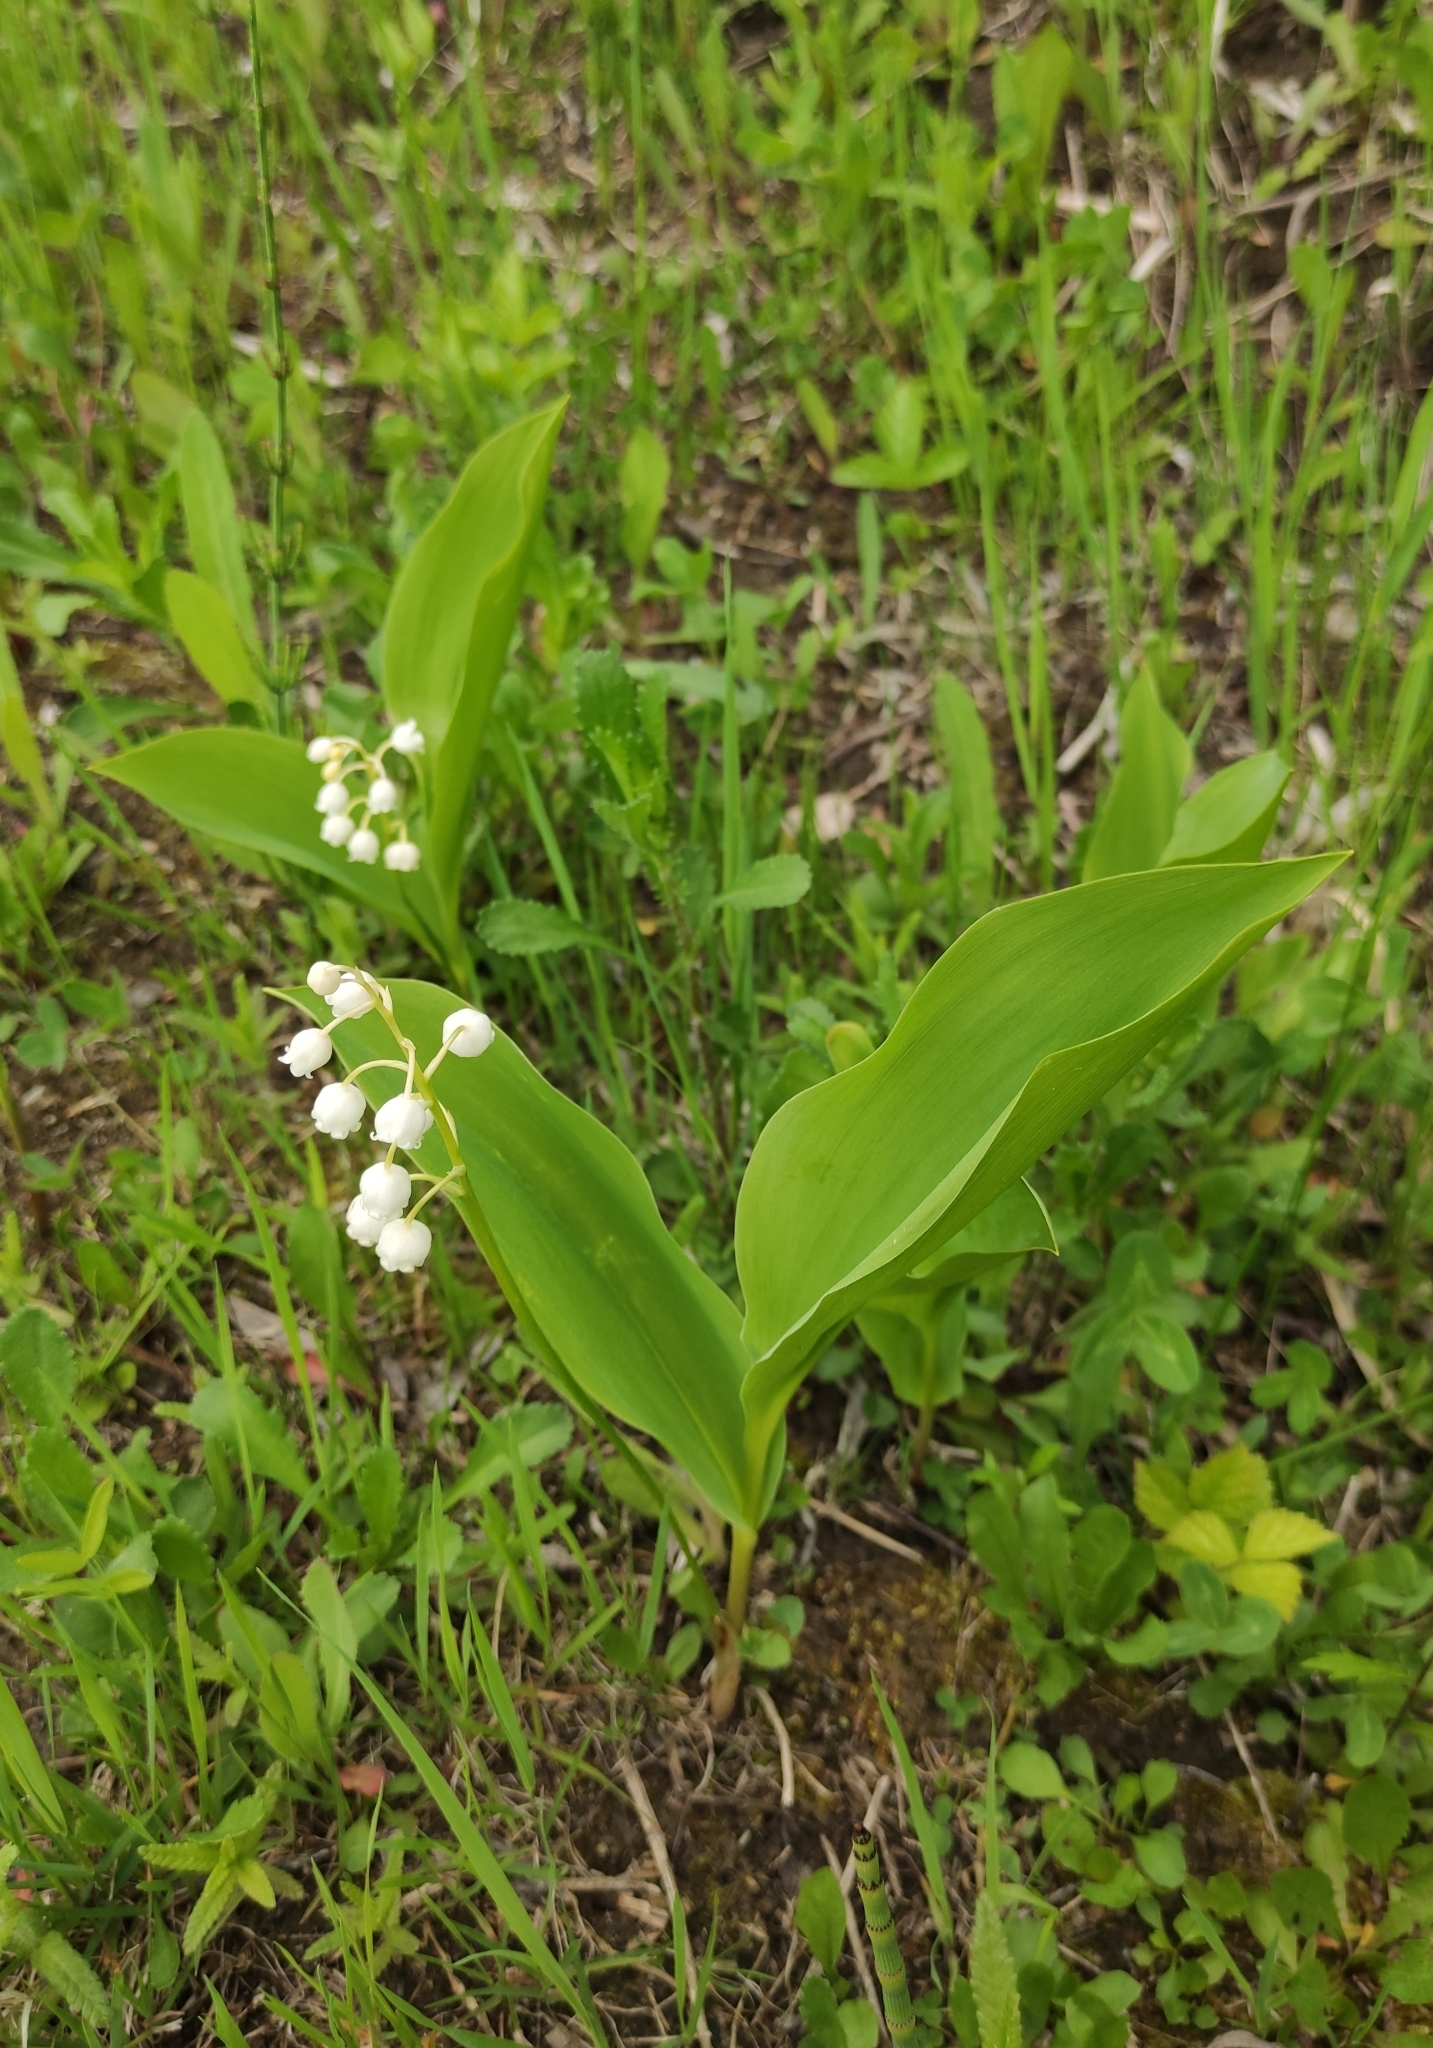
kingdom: Plantae
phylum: Tracheophyta
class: Liliopsida
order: Asparagales
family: Asparagaceae
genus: Convallaria
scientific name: Convallaria majalis
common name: Lily-of-the-valley
